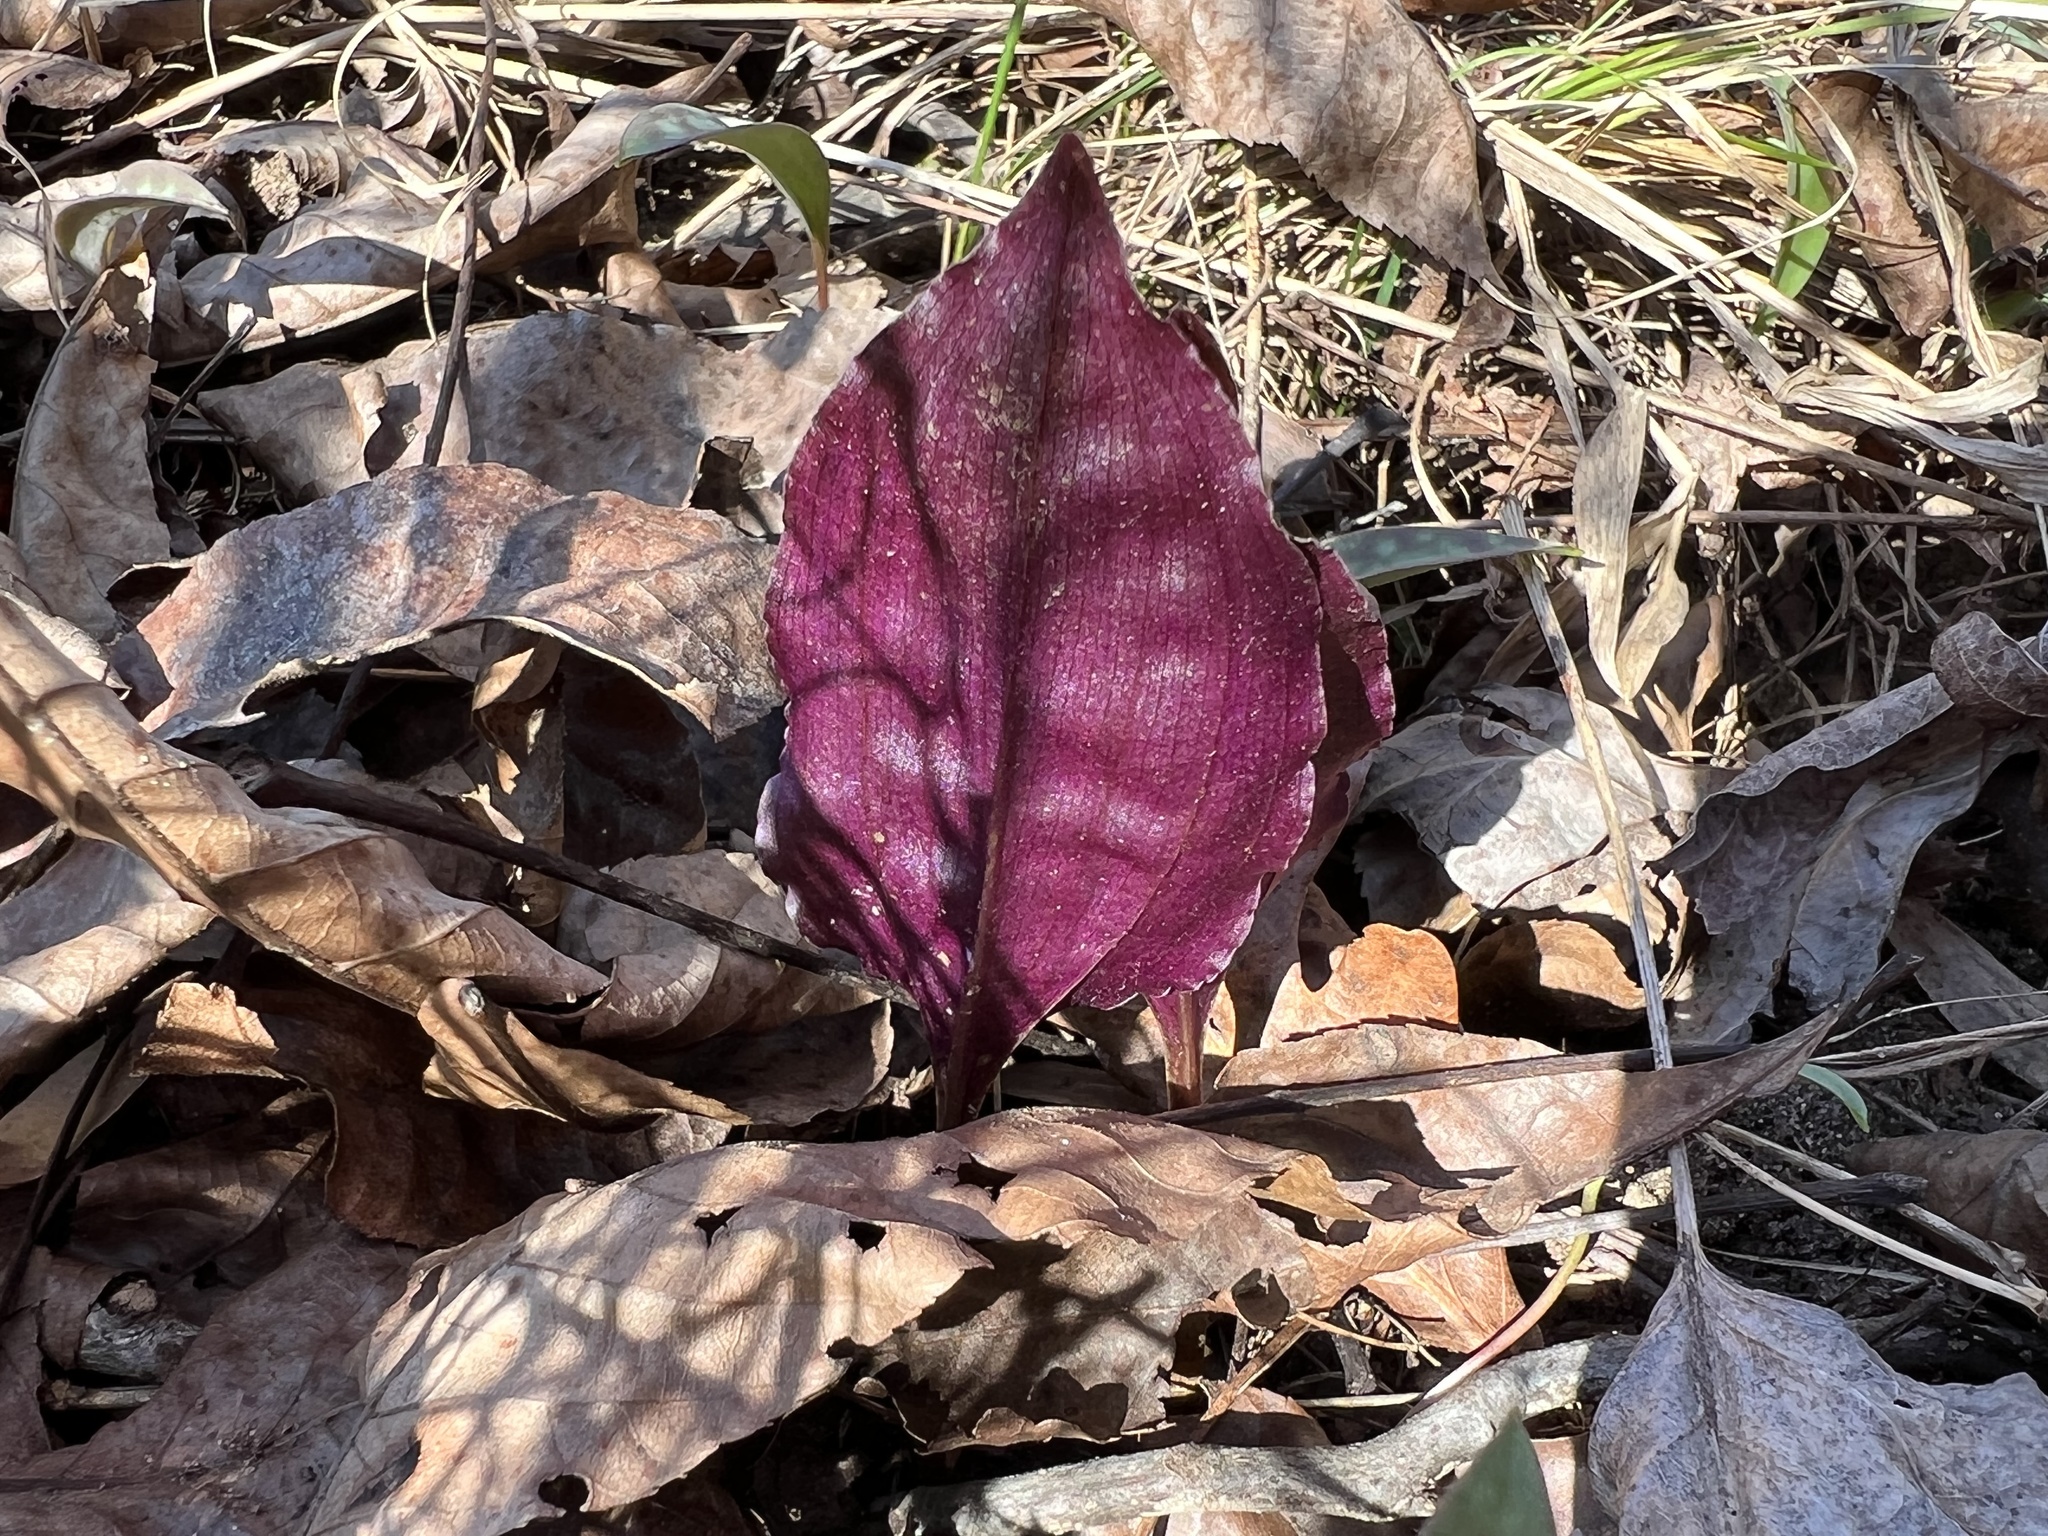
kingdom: Plantae
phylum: Tracheophyta
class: Liliopsida
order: Asparagales
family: Orchidaceae
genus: Tipularia
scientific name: Tipularia discolor
